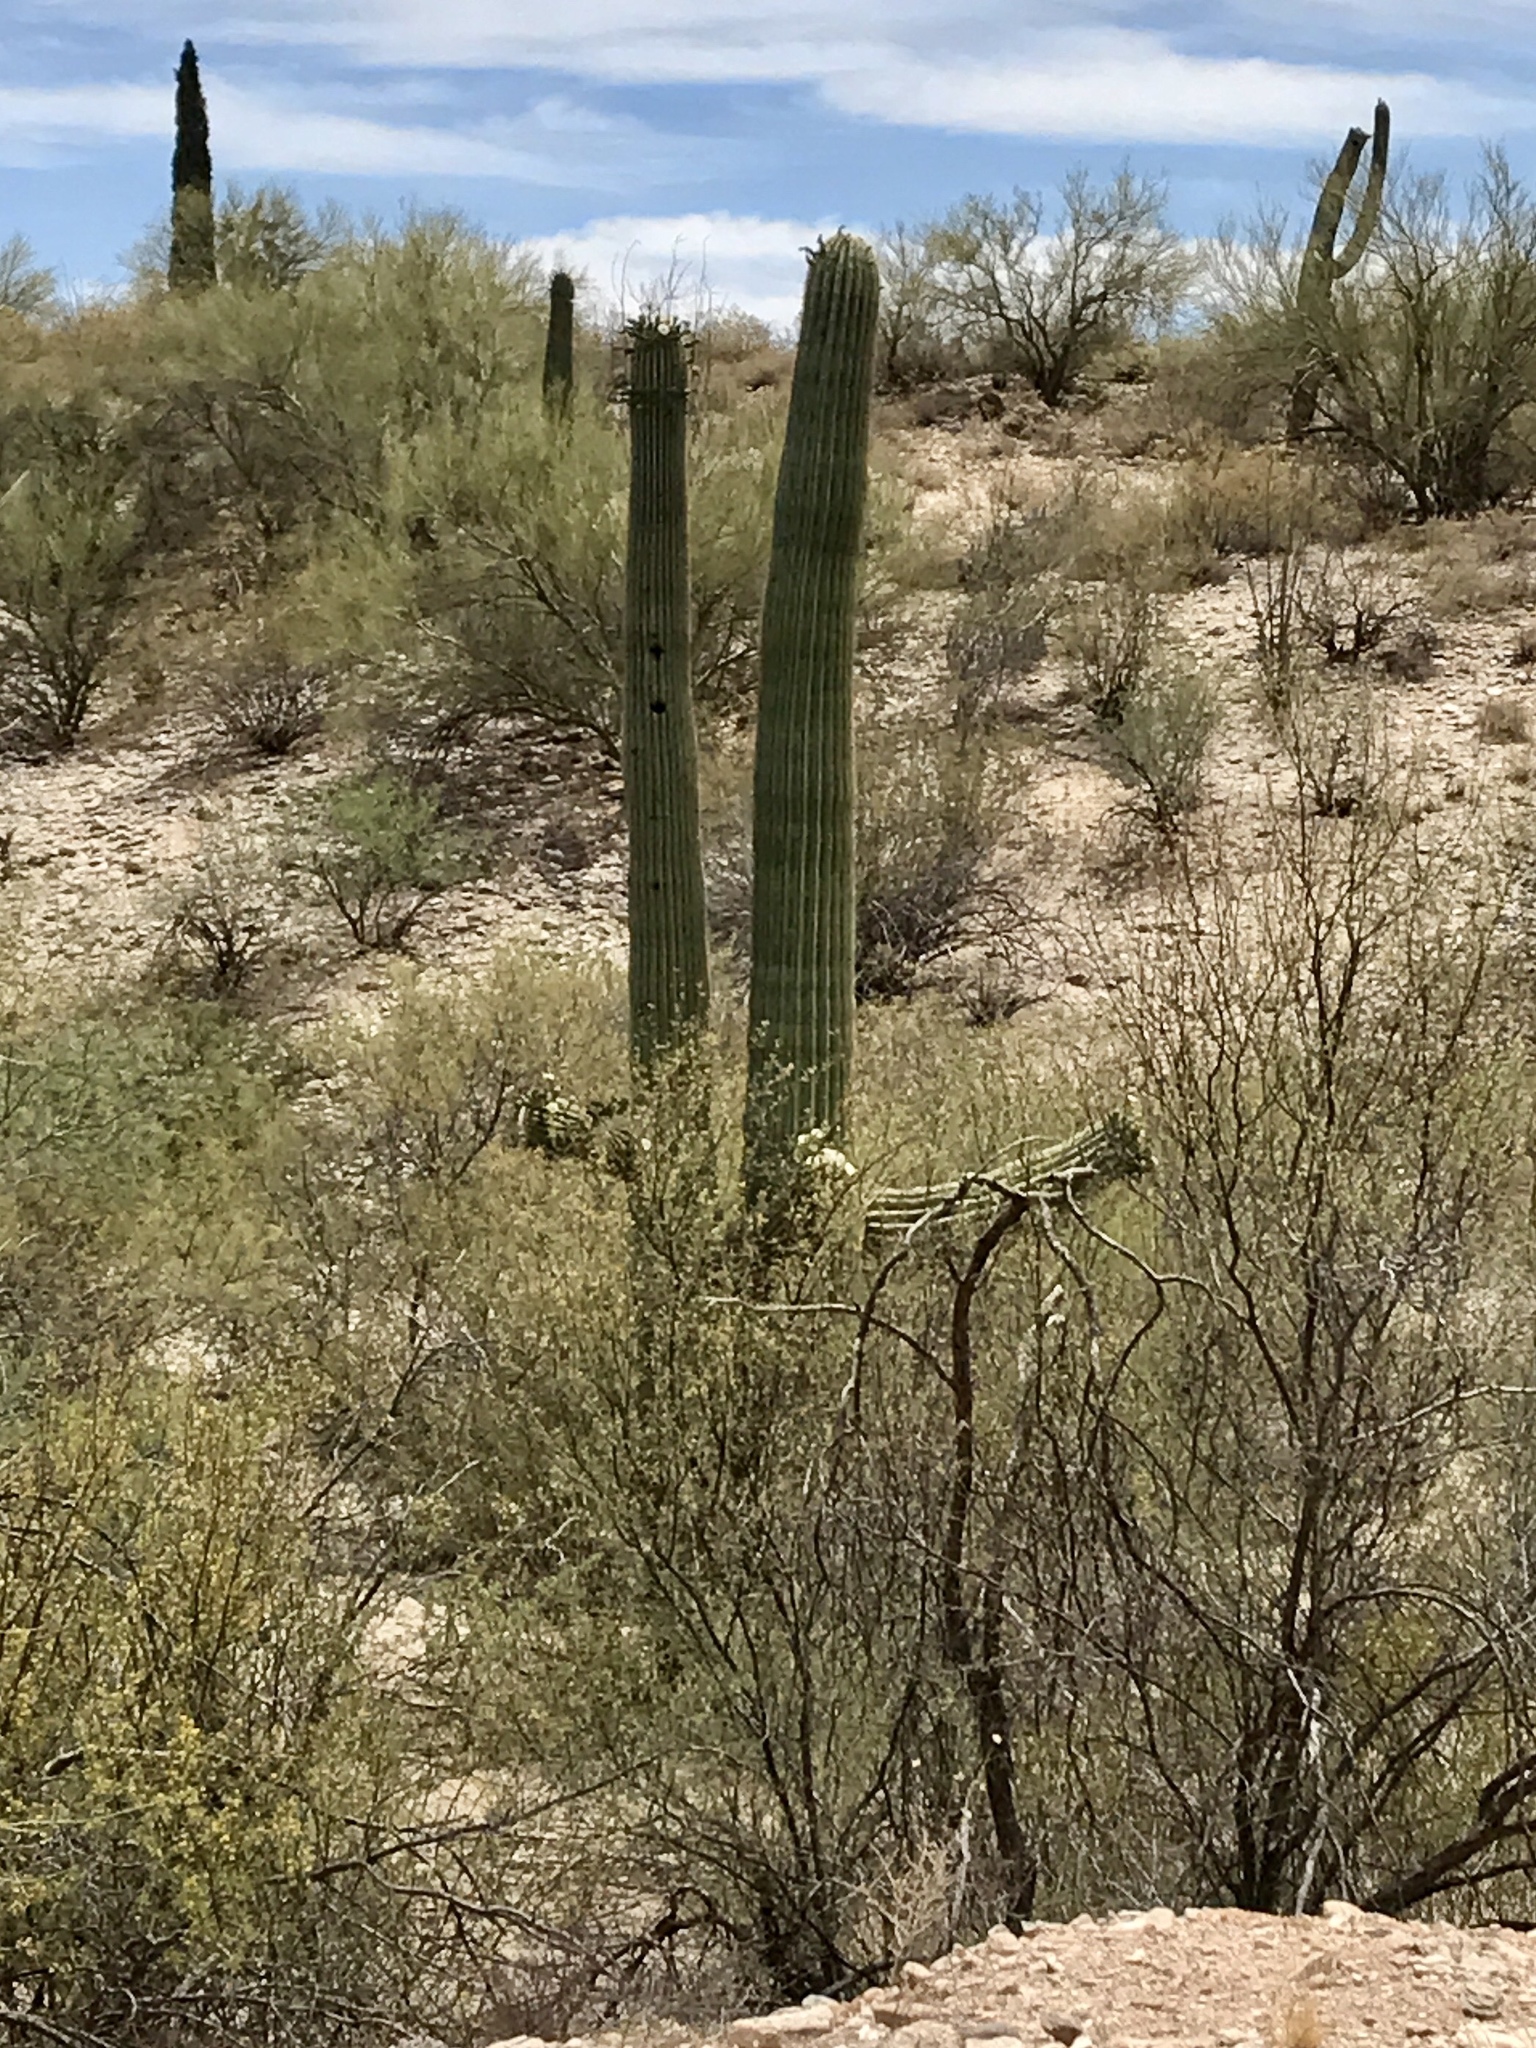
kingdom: Plantae
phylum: Tracheophyta
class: Magnoliopsida
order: Caryophyllales
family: Cactaceae
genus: Carnegiea
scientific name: Carnegiea gigantea
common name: Saguaro
